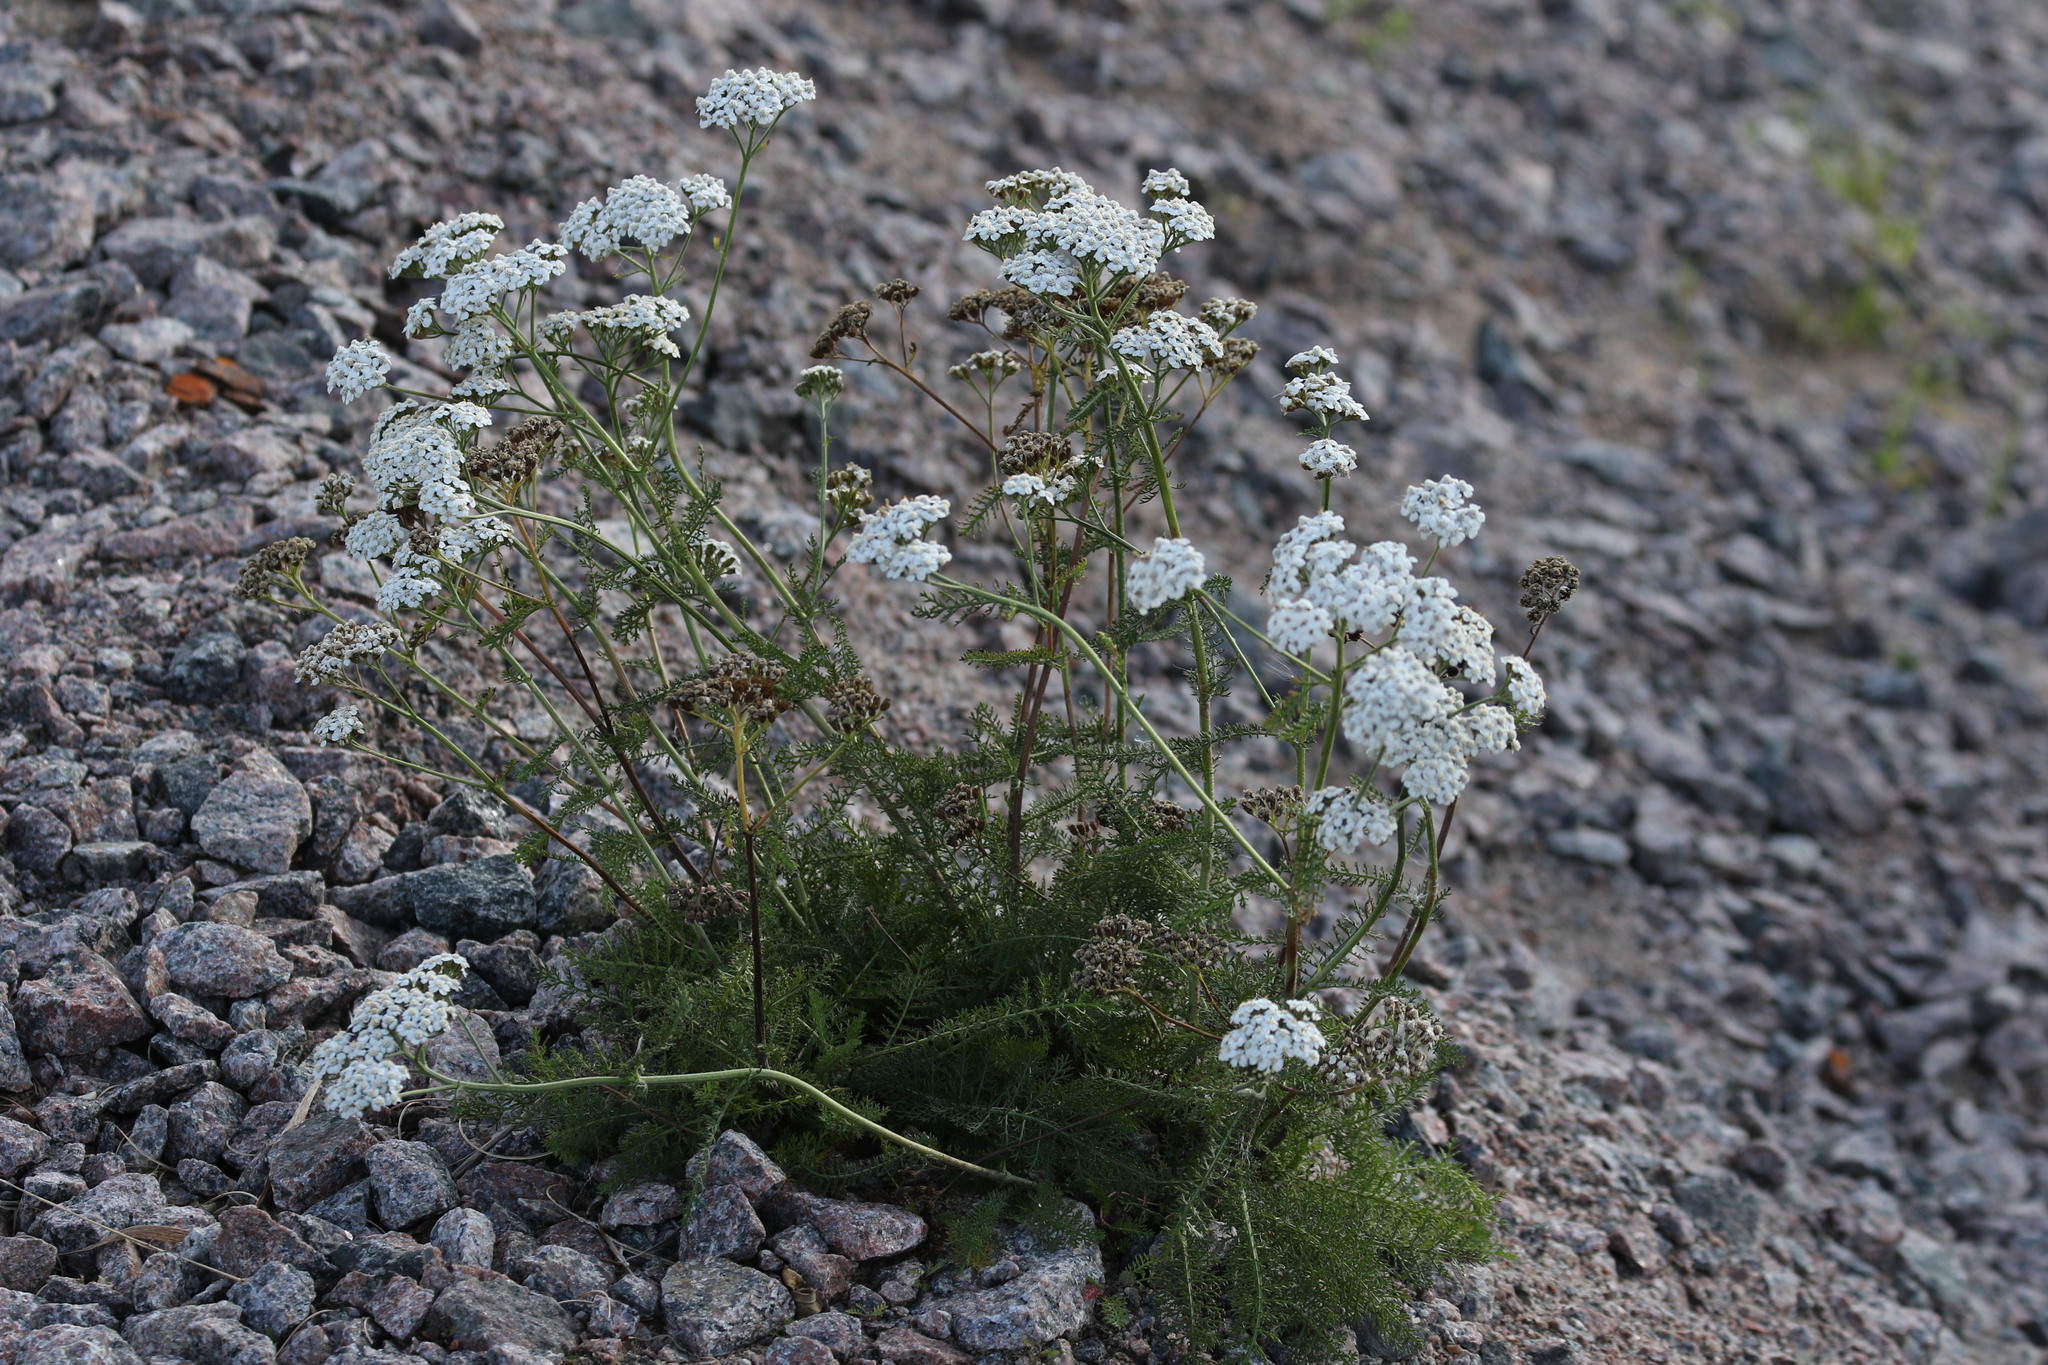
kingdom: Plantae
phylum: Tracheophyta
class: Magnoliopsida
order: Asterales
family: Asteraceae
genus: Achillea
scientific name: Achillea millefolium
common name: Yarrow
